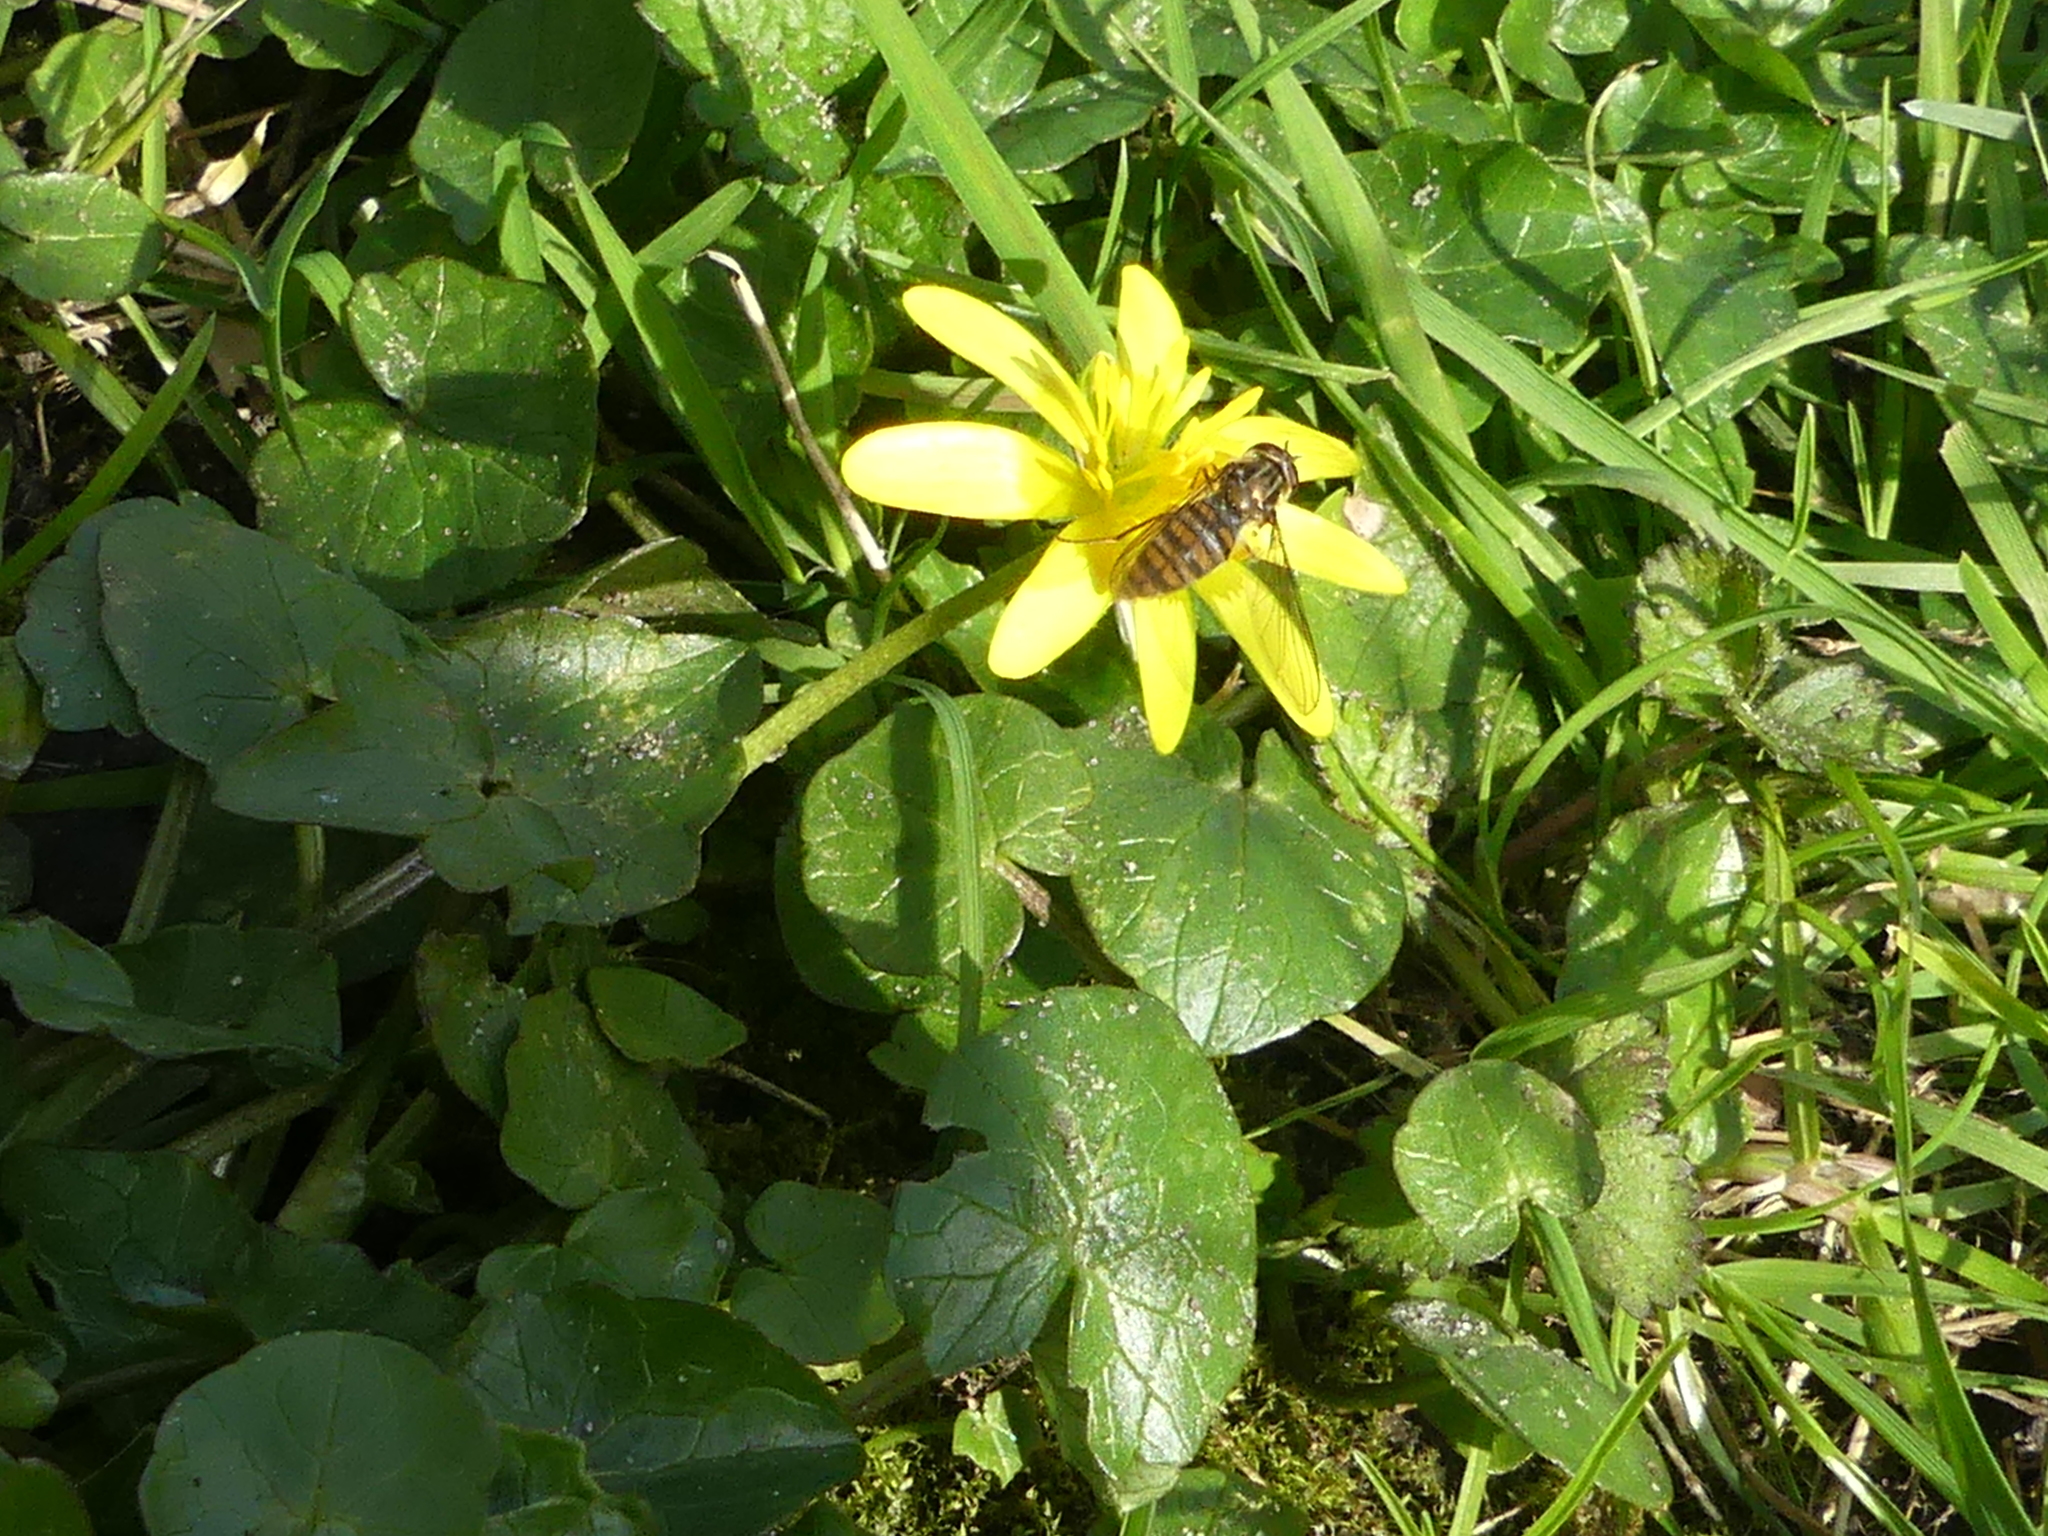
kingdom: Animalia
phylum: Arthropoda
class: Insecta
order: Diptera
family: Syrphidae
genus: Episyrphus
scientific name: Episyrphus balteatus
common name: Marmalade hoverfly
